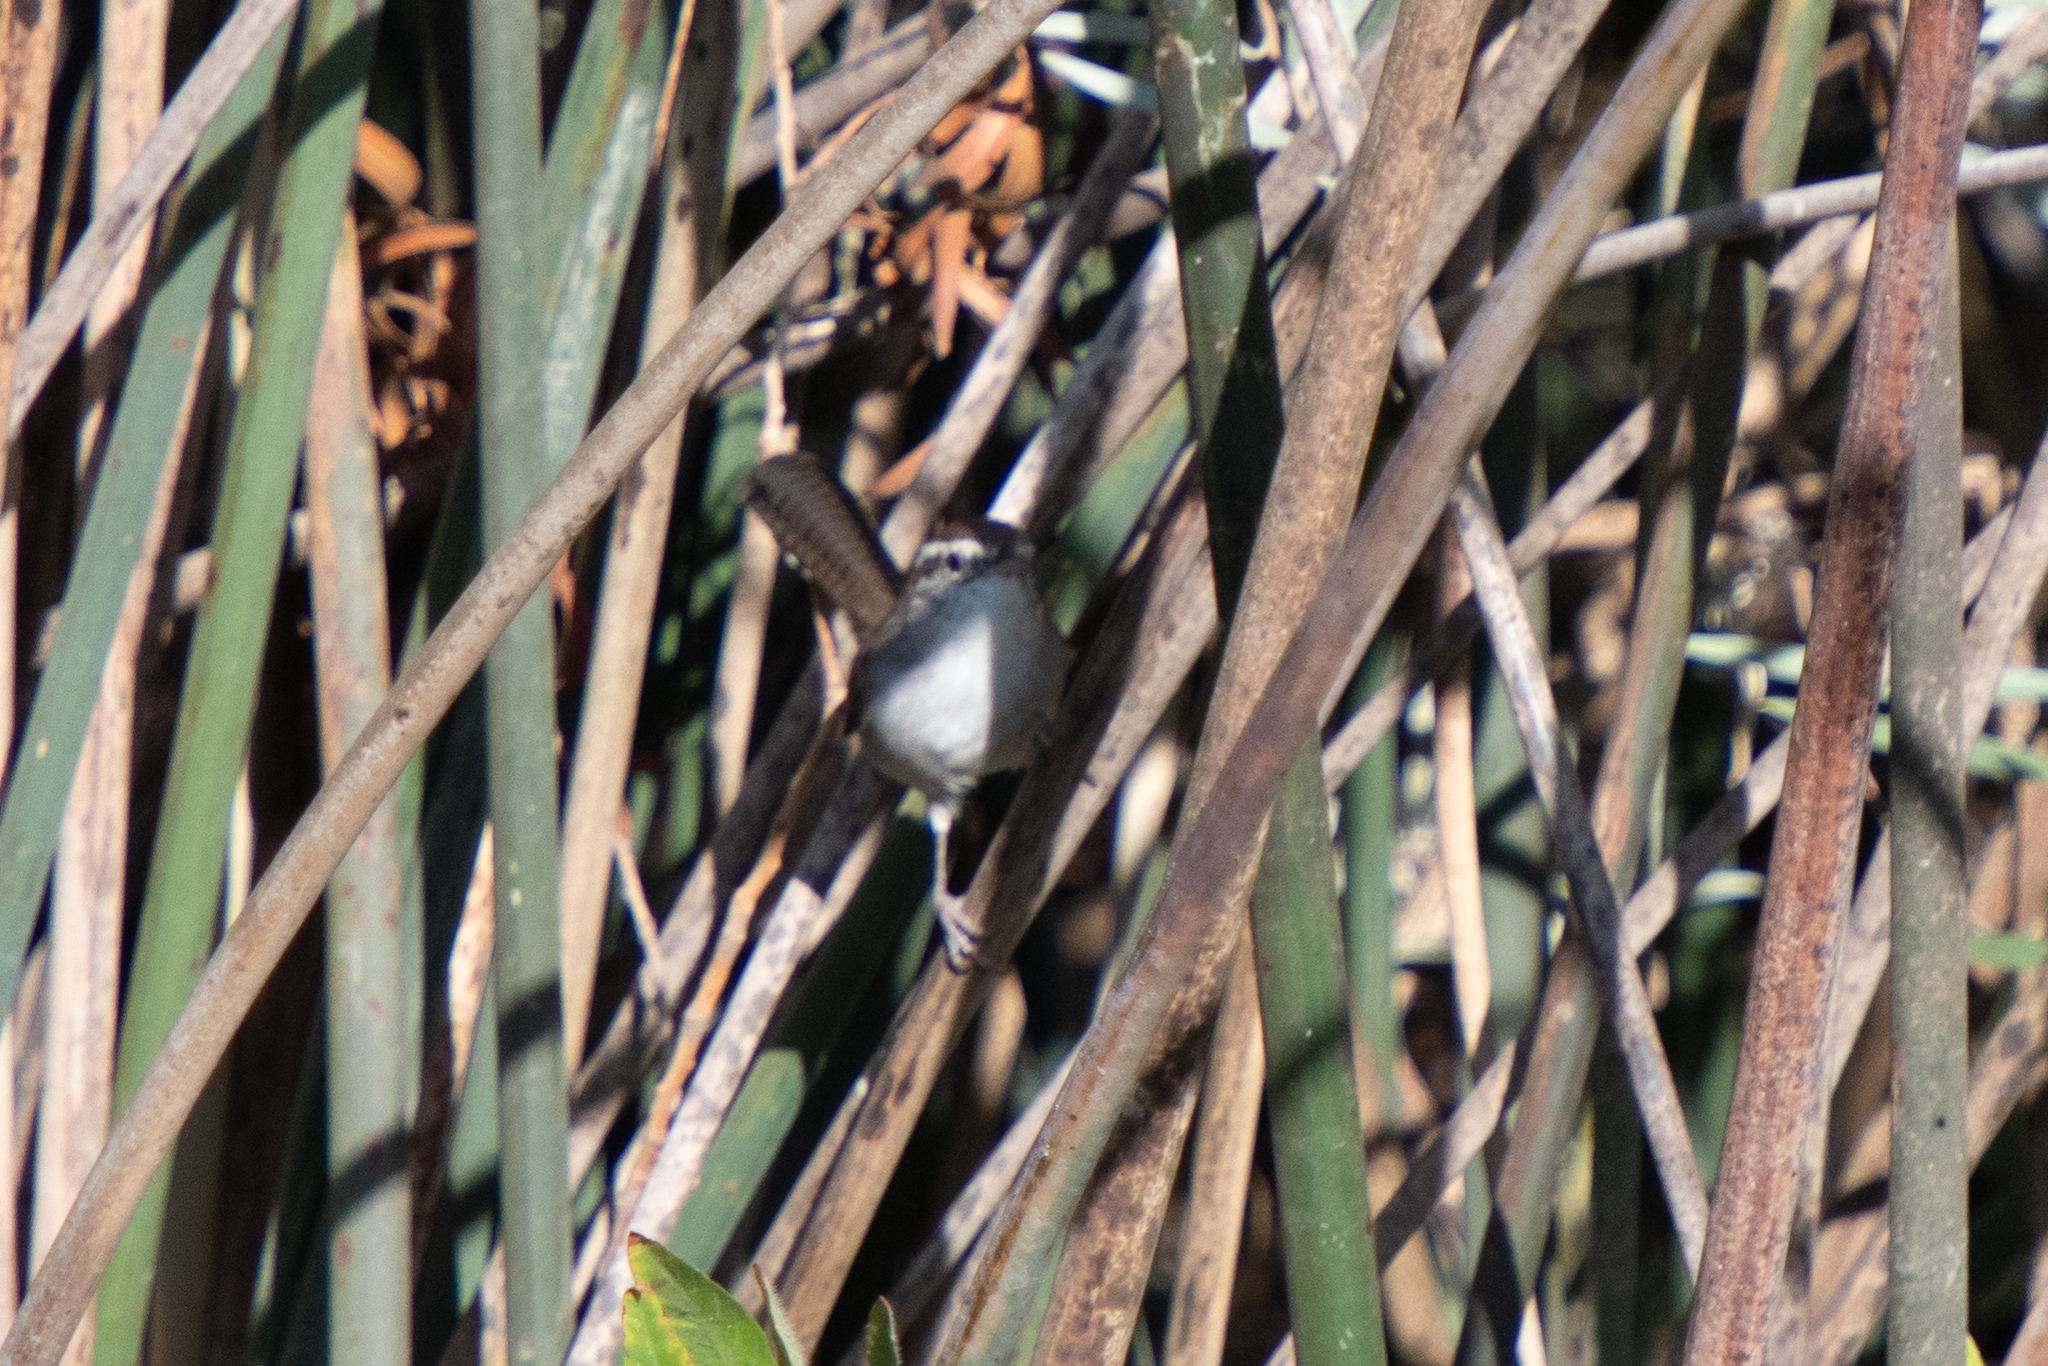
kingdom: Animalia
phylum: Chordata
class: Aves
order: Passeriformes
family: Troglodytidae
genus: Thryomanes
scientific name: Thryomanes bewickii
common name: Bewick's wren
